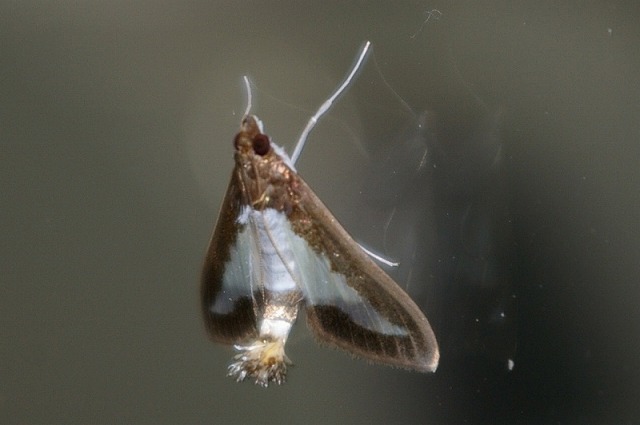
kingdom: Animalia
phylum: Arthropoda
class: Insecta
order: Lepidoptera
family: Crambidae
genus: Diaphania
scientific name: Diaphania indica
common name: Cucumber moth
